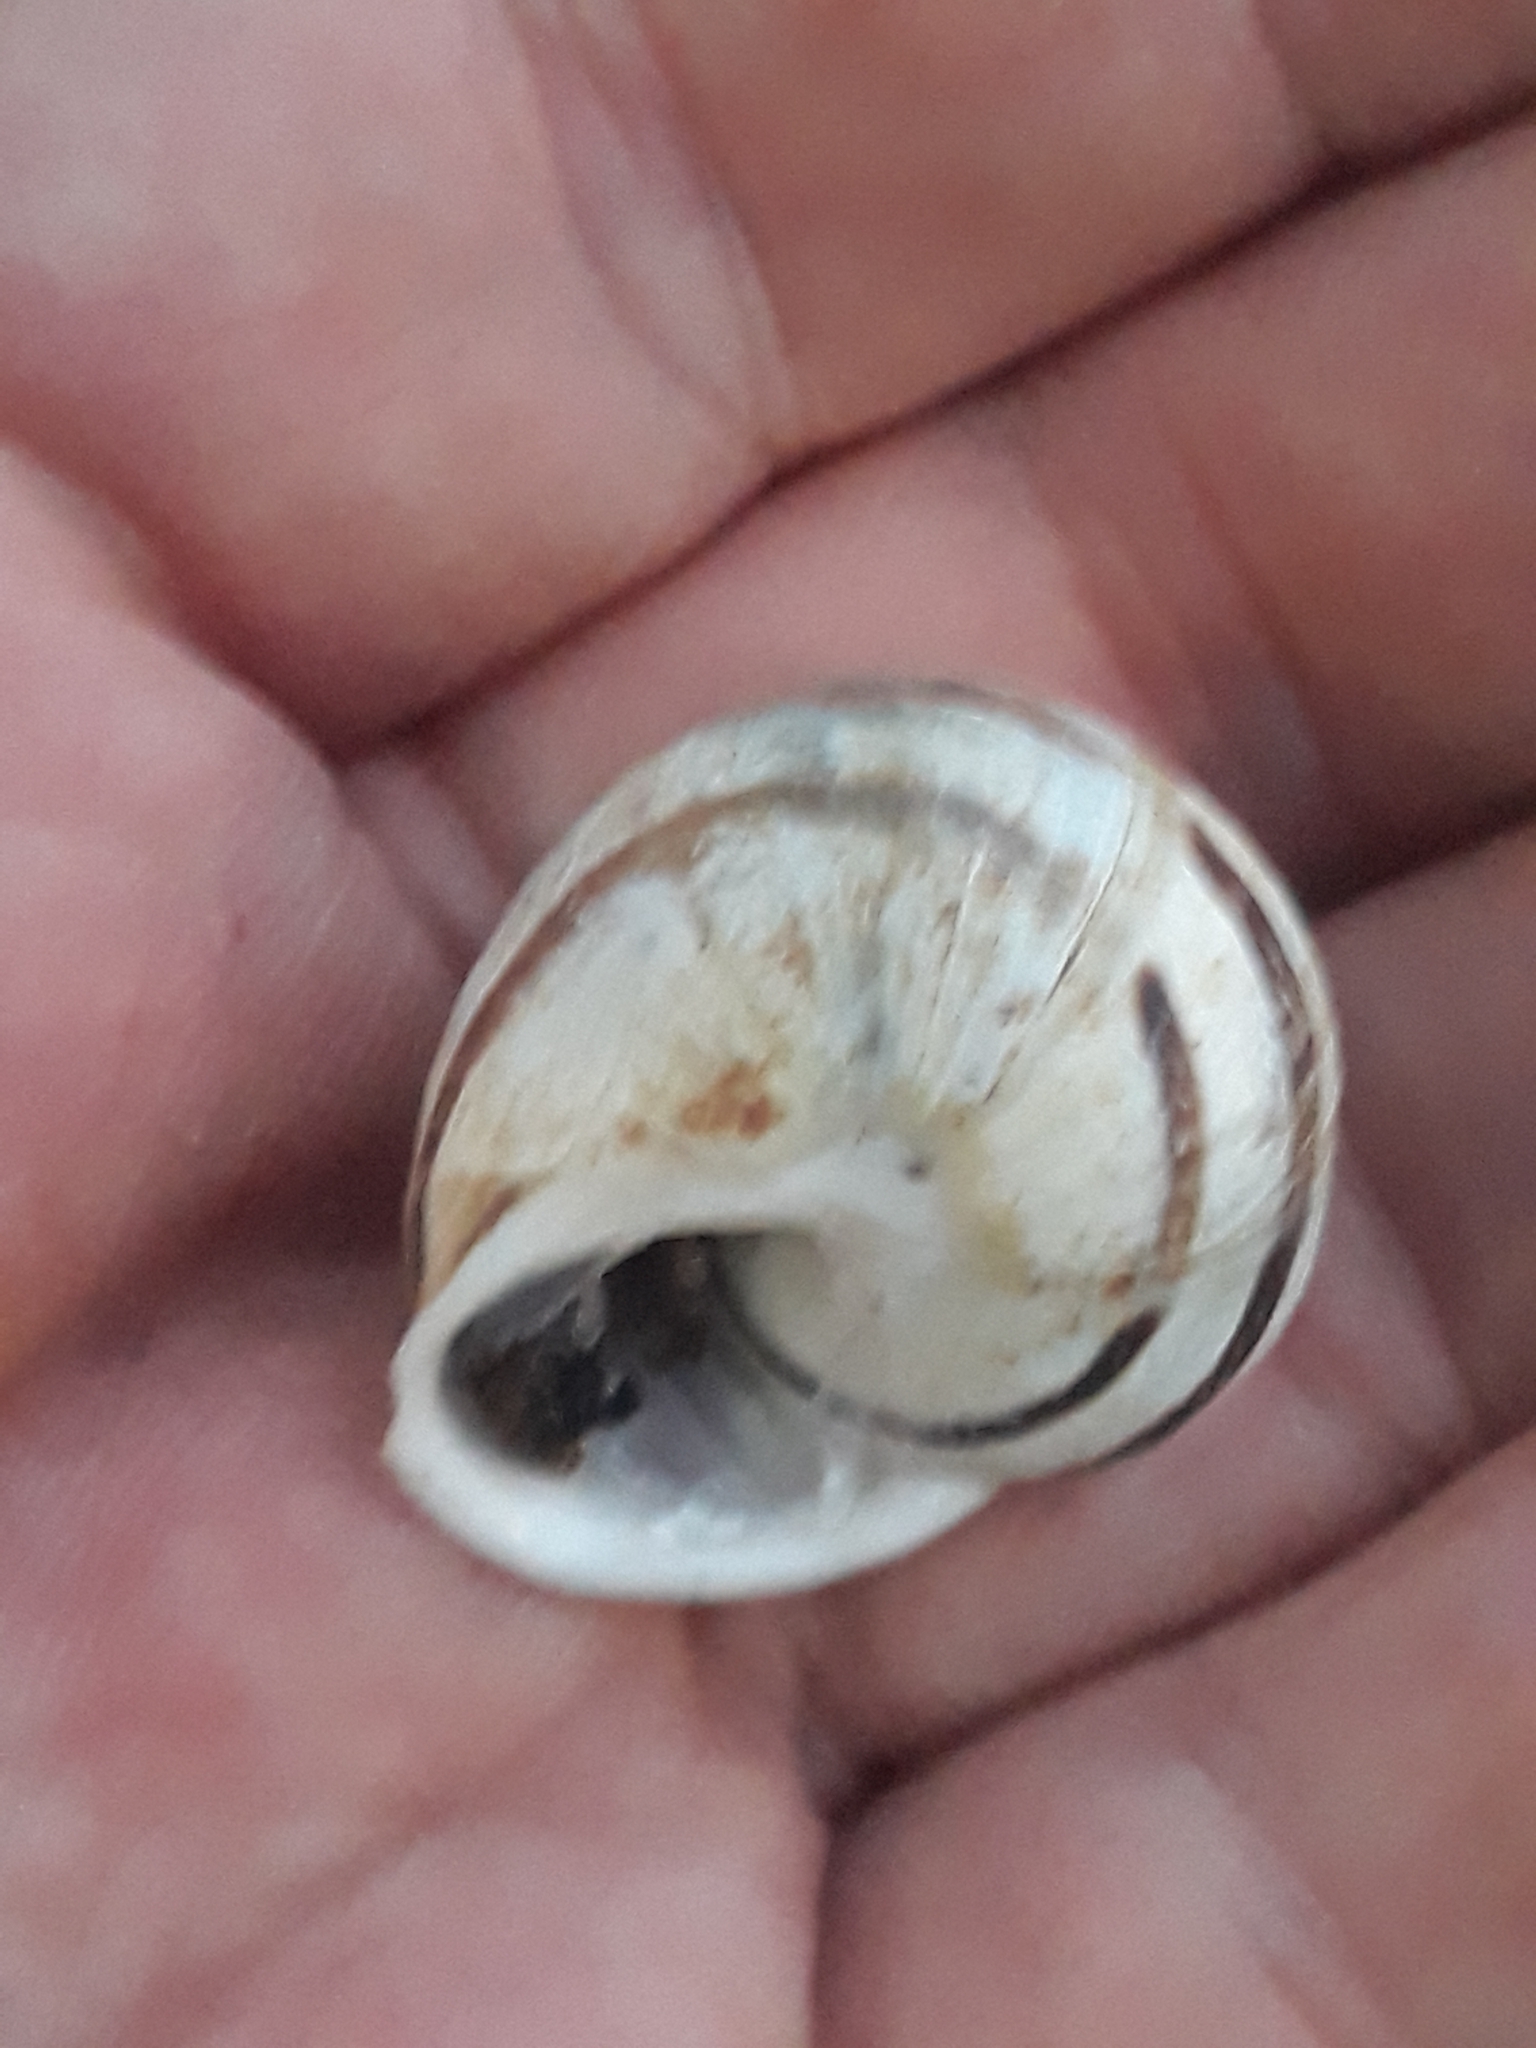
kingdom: Animalia
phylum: Mollusca
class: Gastropoda
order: Stylommatophora
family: Helicidae
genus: Eobania
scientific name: Eobania vermiculata
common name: Chocolateband snail
